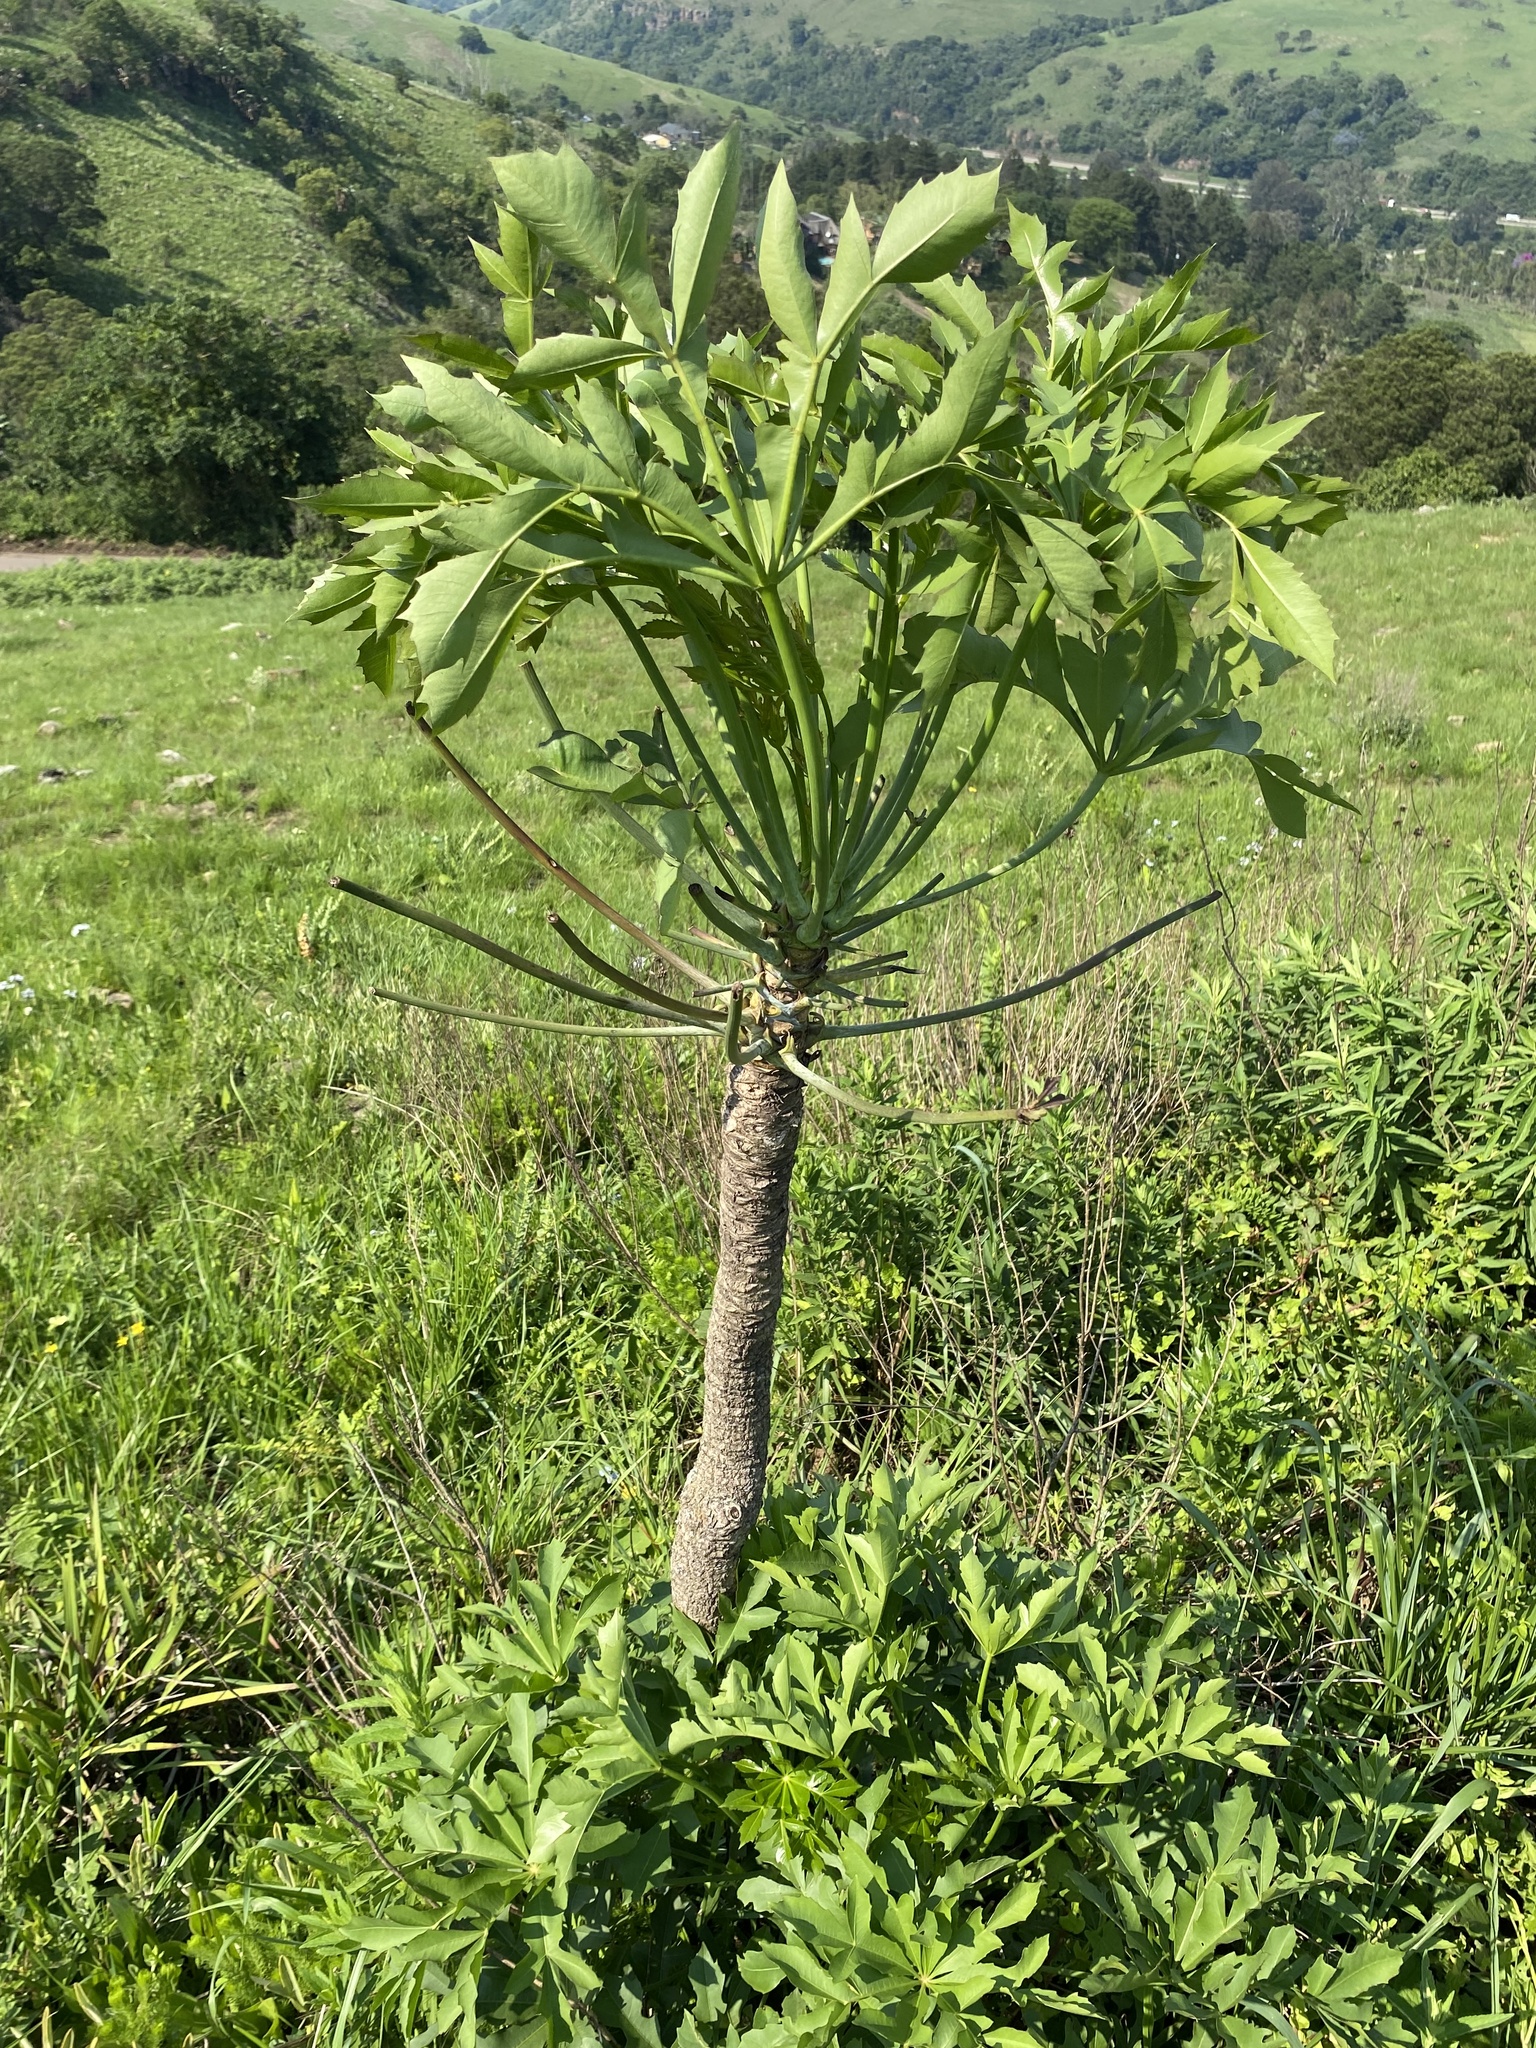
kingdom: Plantae
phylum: Tracheophyta
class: Magnoliopsida
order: Apiales
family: Araliaceae
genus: Cussonia
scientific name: Cussonia spicata
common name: Common cabbagetree
